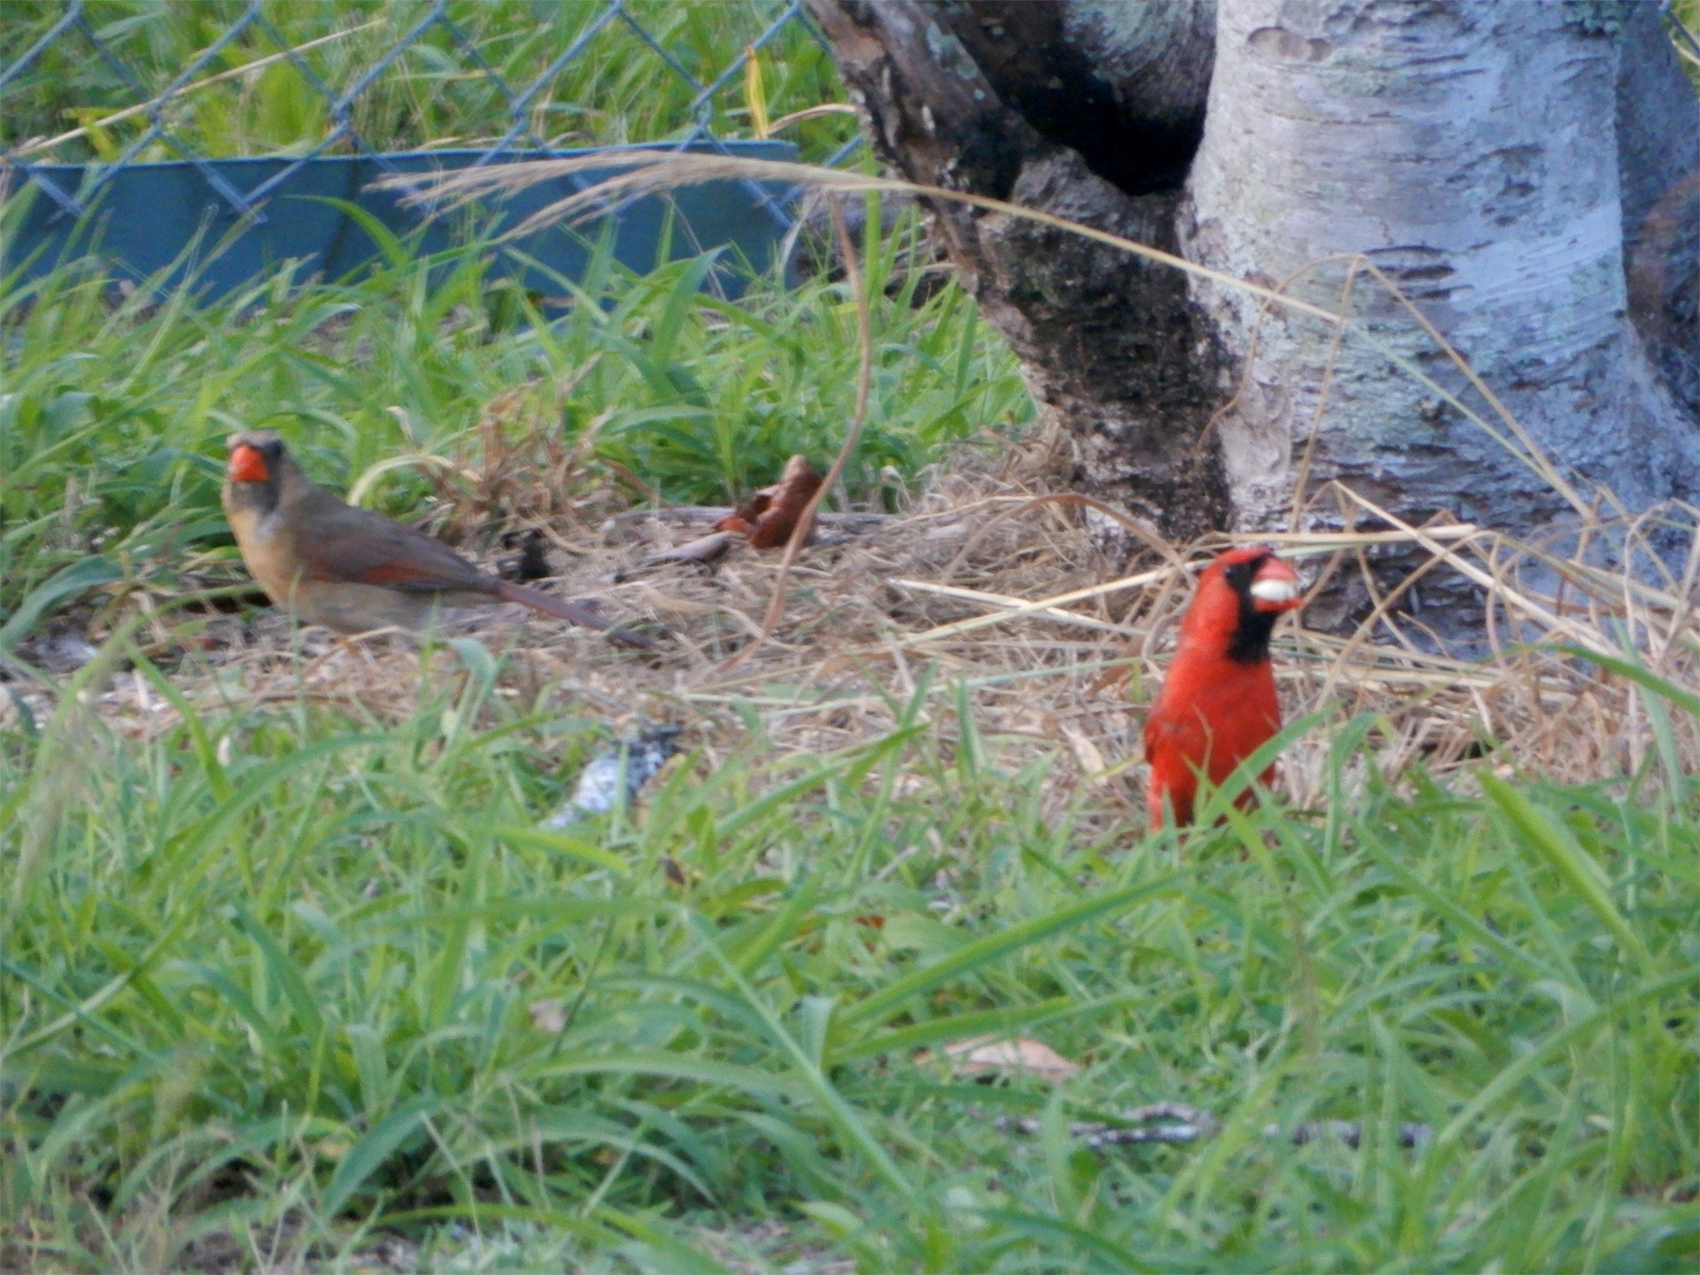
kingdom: Animalia
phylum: Chordata
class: Aves
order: Passeriformes
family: Cardinalidae
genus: Cardinalis
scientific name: Cardinalis cardinalis
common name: Northern cardinal
